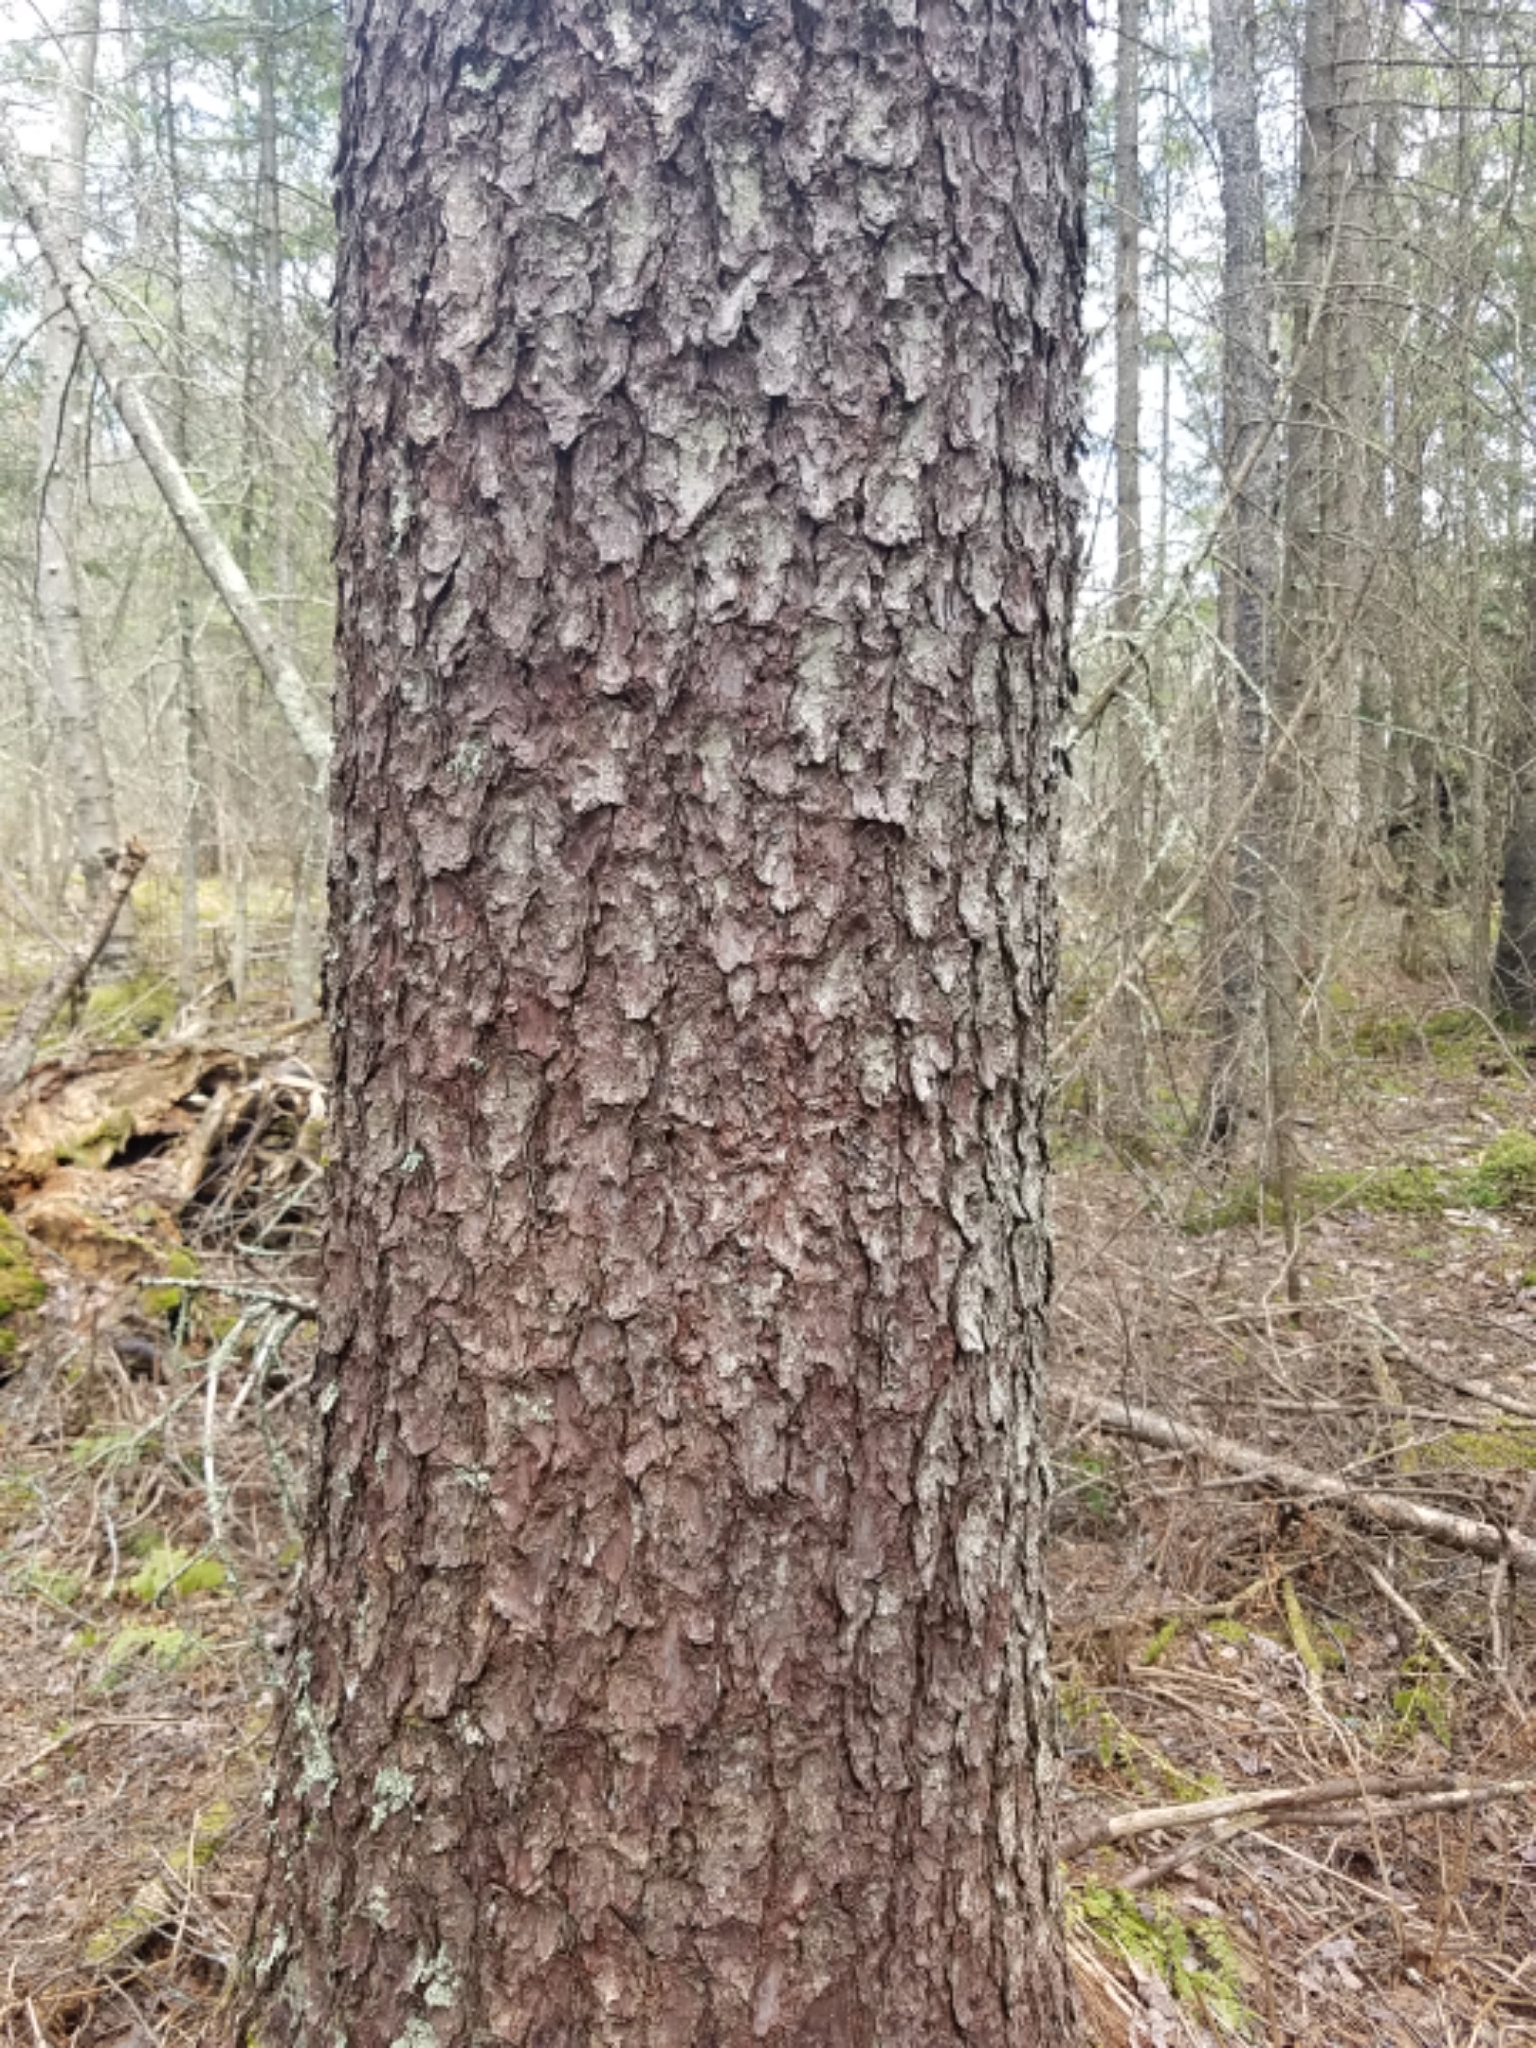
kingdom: Plantae
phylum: Tracheophyta
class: Pinopsida
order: Pinales
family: Pinaceae
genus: Larix
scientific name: Larix laricina
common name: American larch
